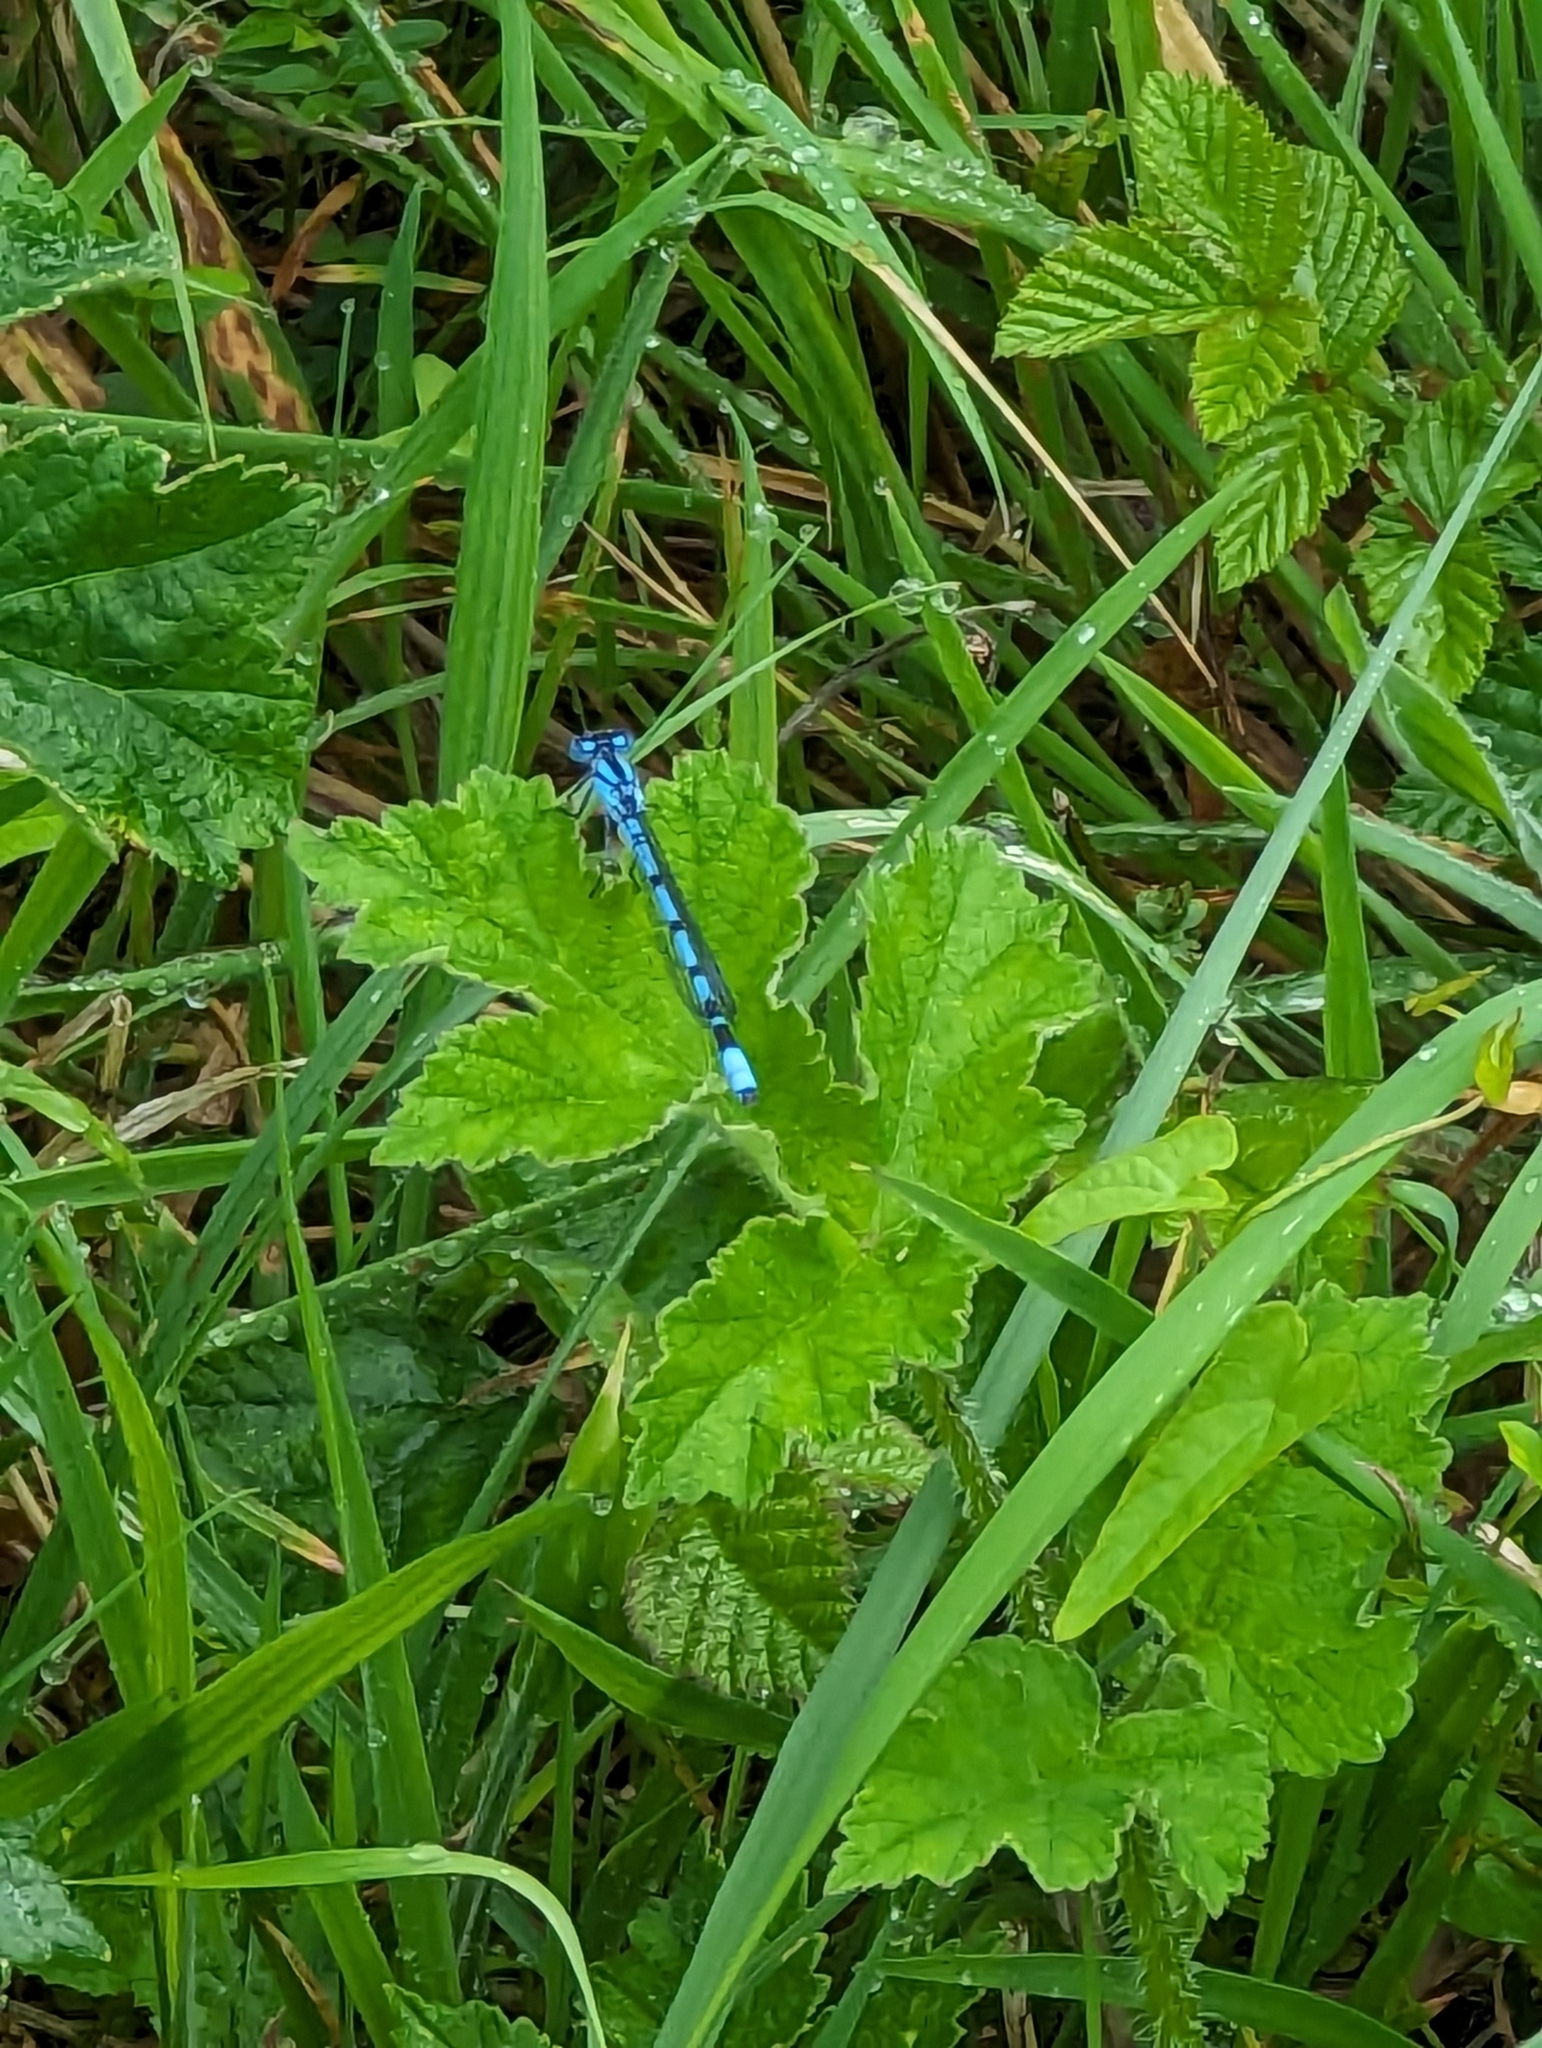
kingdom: Animalia
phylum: Arthropoda
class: Insecta
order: Odonata
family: Coenagrionidae
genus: Enallagma
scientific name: Enallagma cyathigerum
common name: Common blue damselfly
